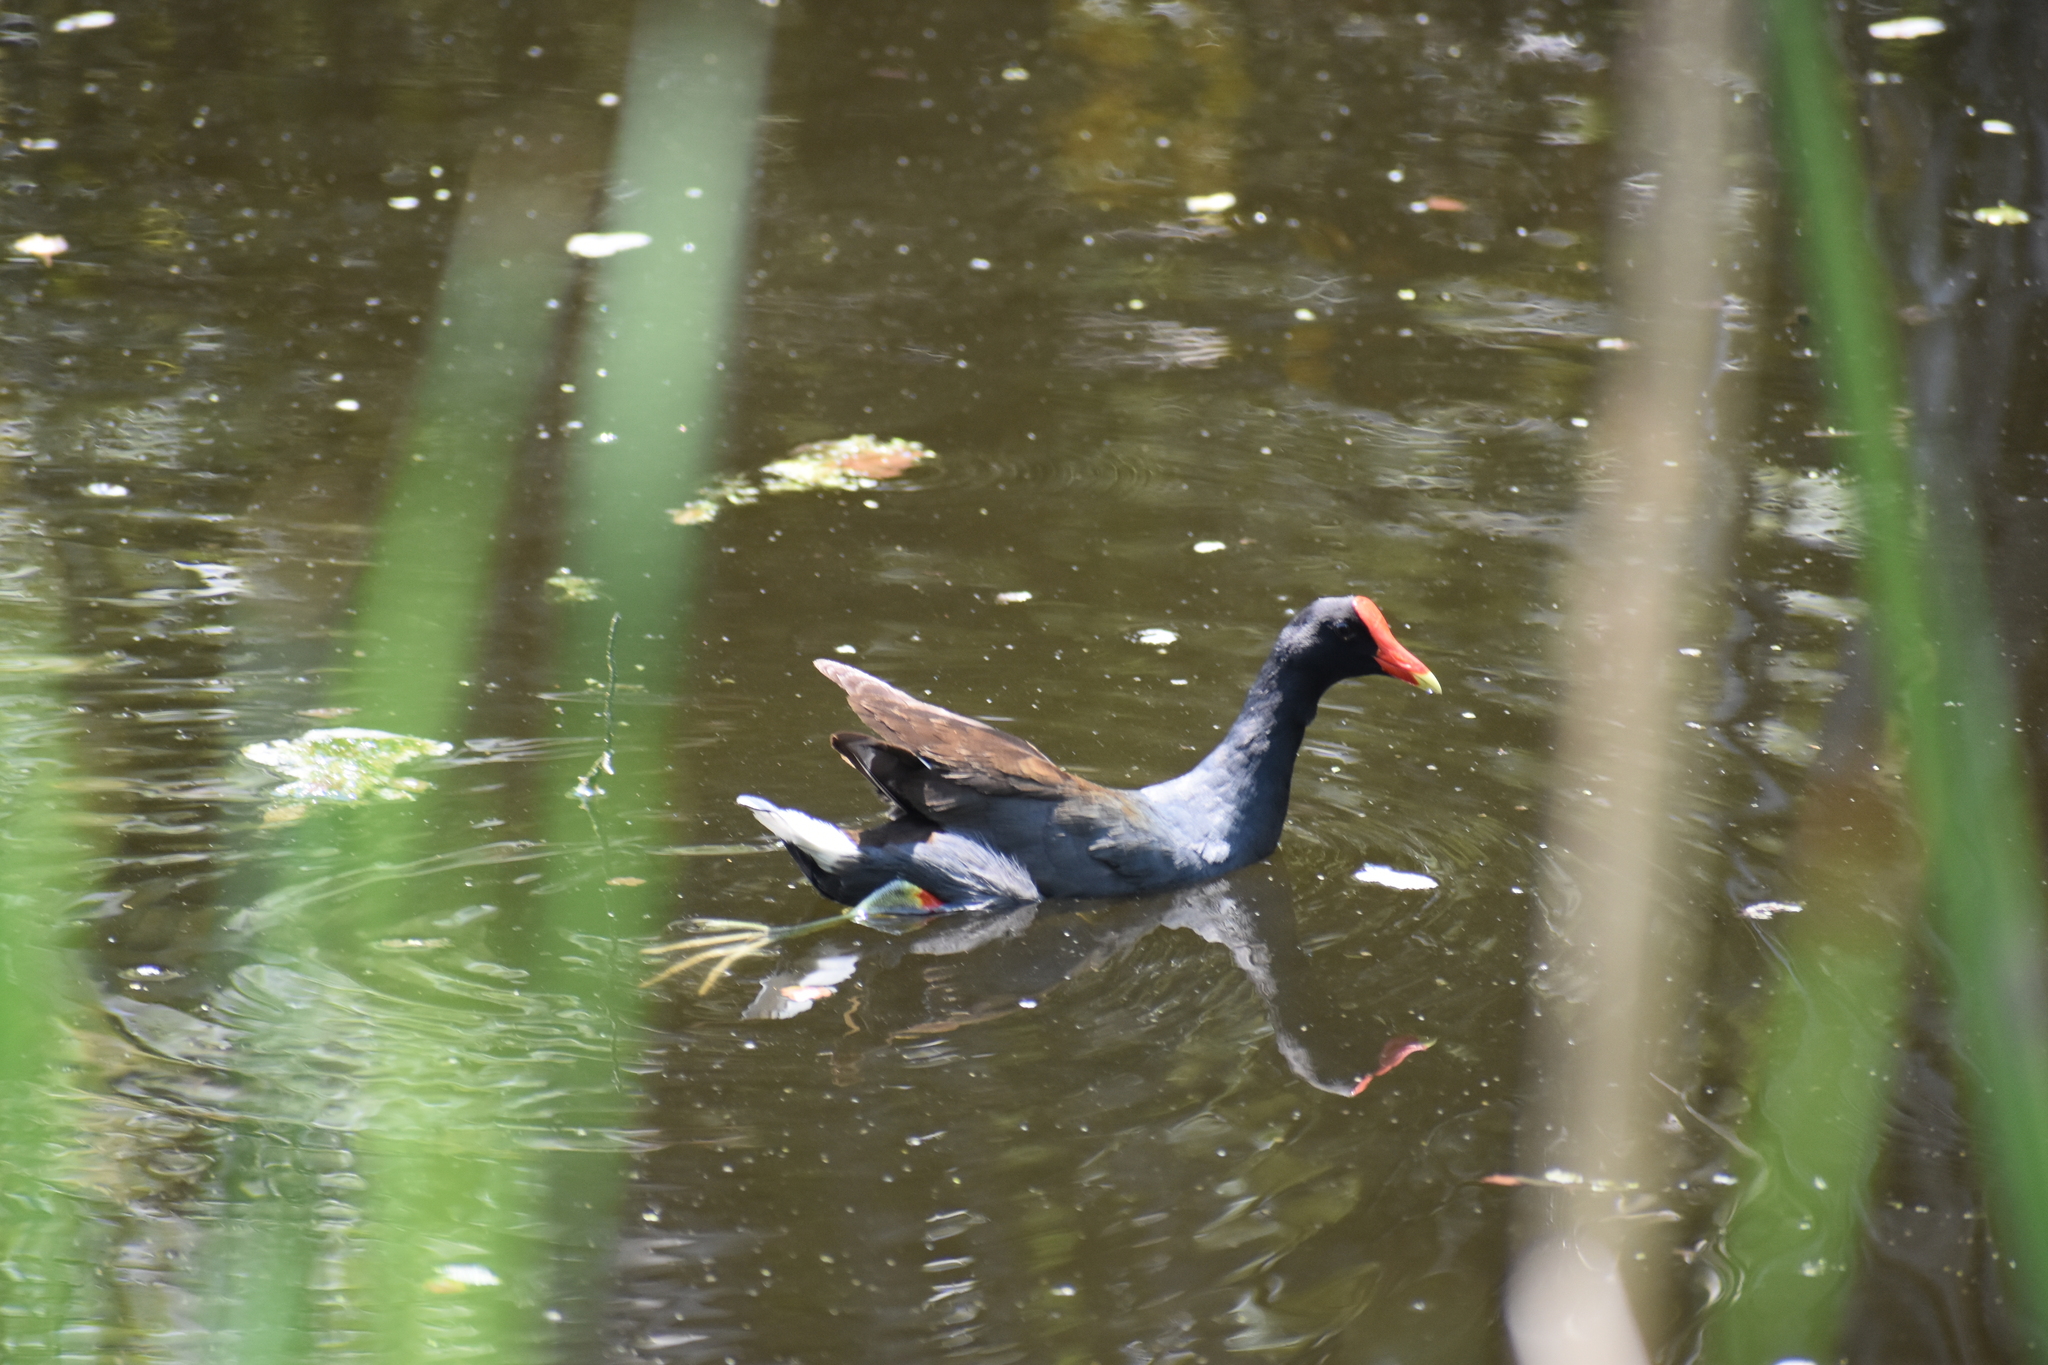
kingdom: Animalia
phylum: Chordata
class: Aves
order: Gruiformes
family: Rallidae
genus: Gallinula
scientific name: Gallinula chloropus
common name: Common moorhen
